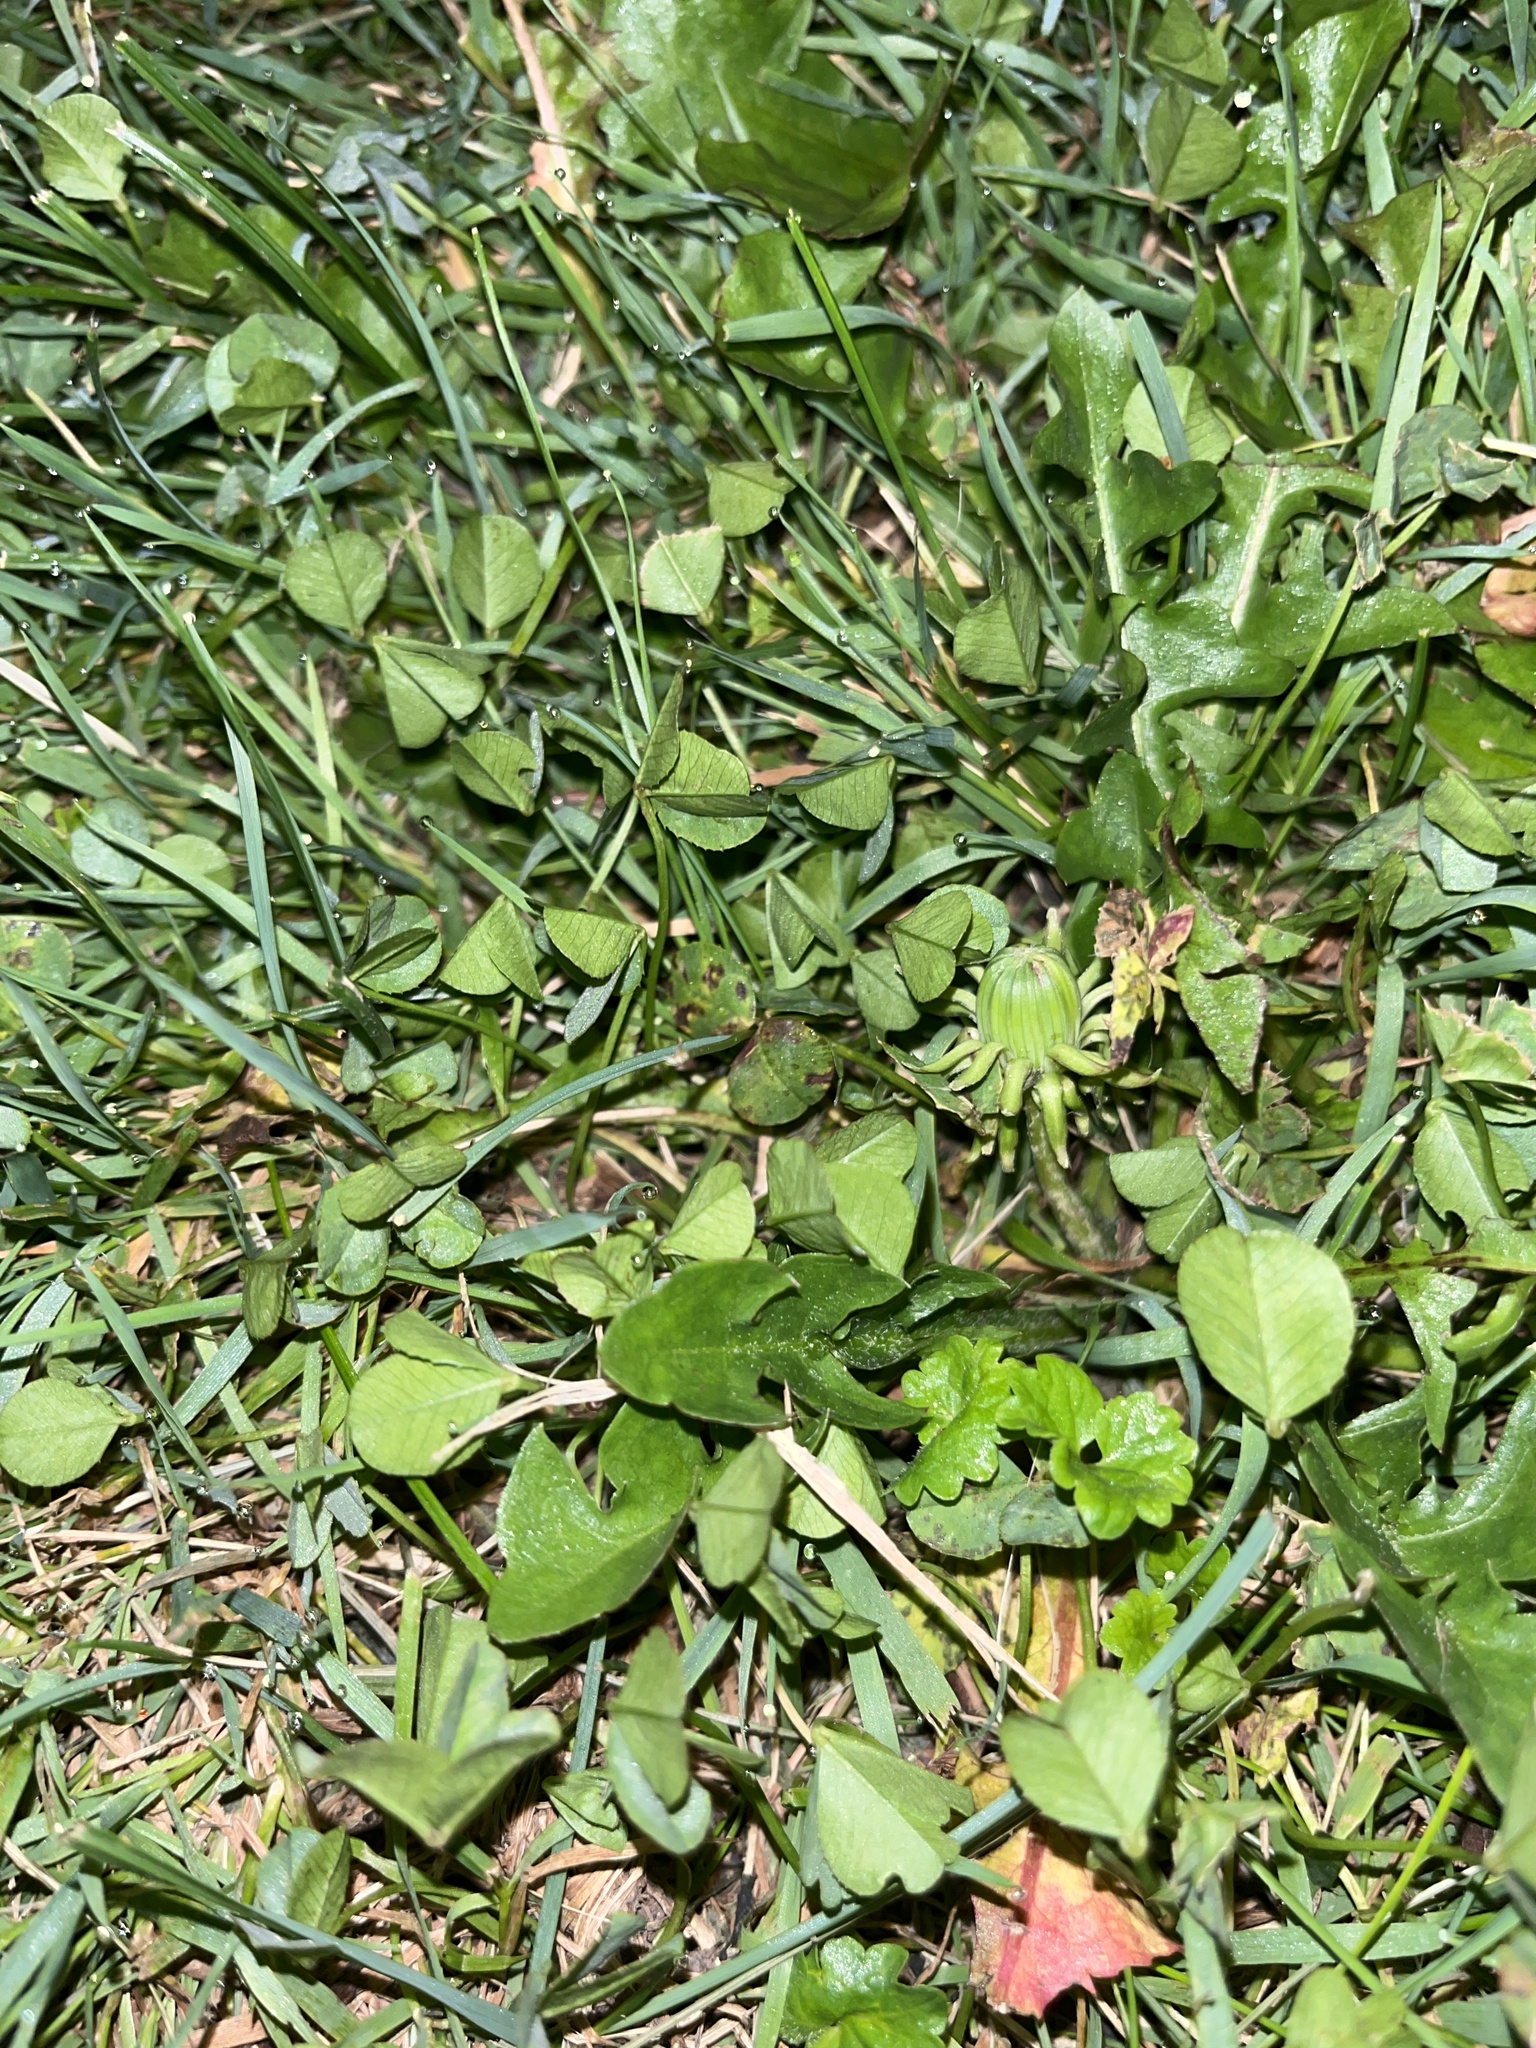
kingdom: Plantae
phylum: Tracheophyta
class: Magnoliopsida
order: Fabales
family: Fabaceae
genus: Trifolium
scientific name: Trifolium repens
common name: White clover
